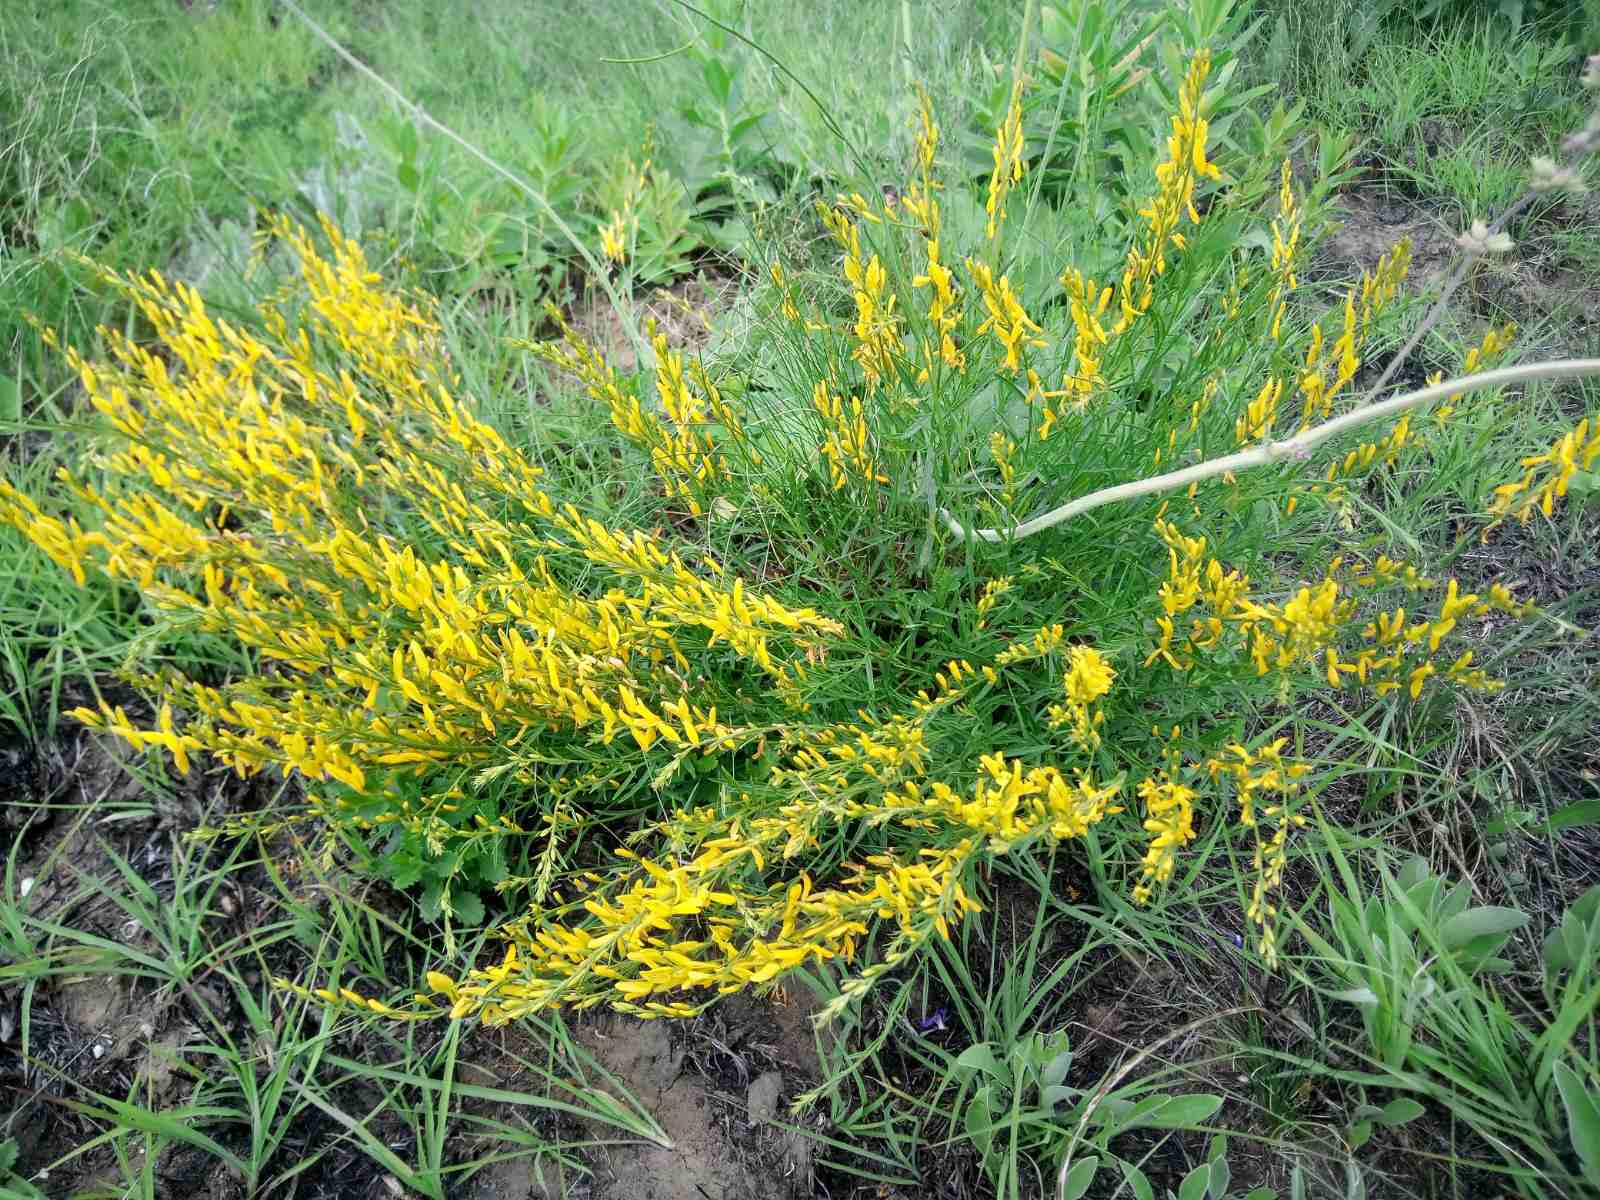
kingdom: Plantae
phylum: Tracheophyta
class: Magnoliopsida
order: Fabales
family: Fabaceae
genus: Genista
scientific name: Genista tinctoria
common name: Dyer's greenweed
